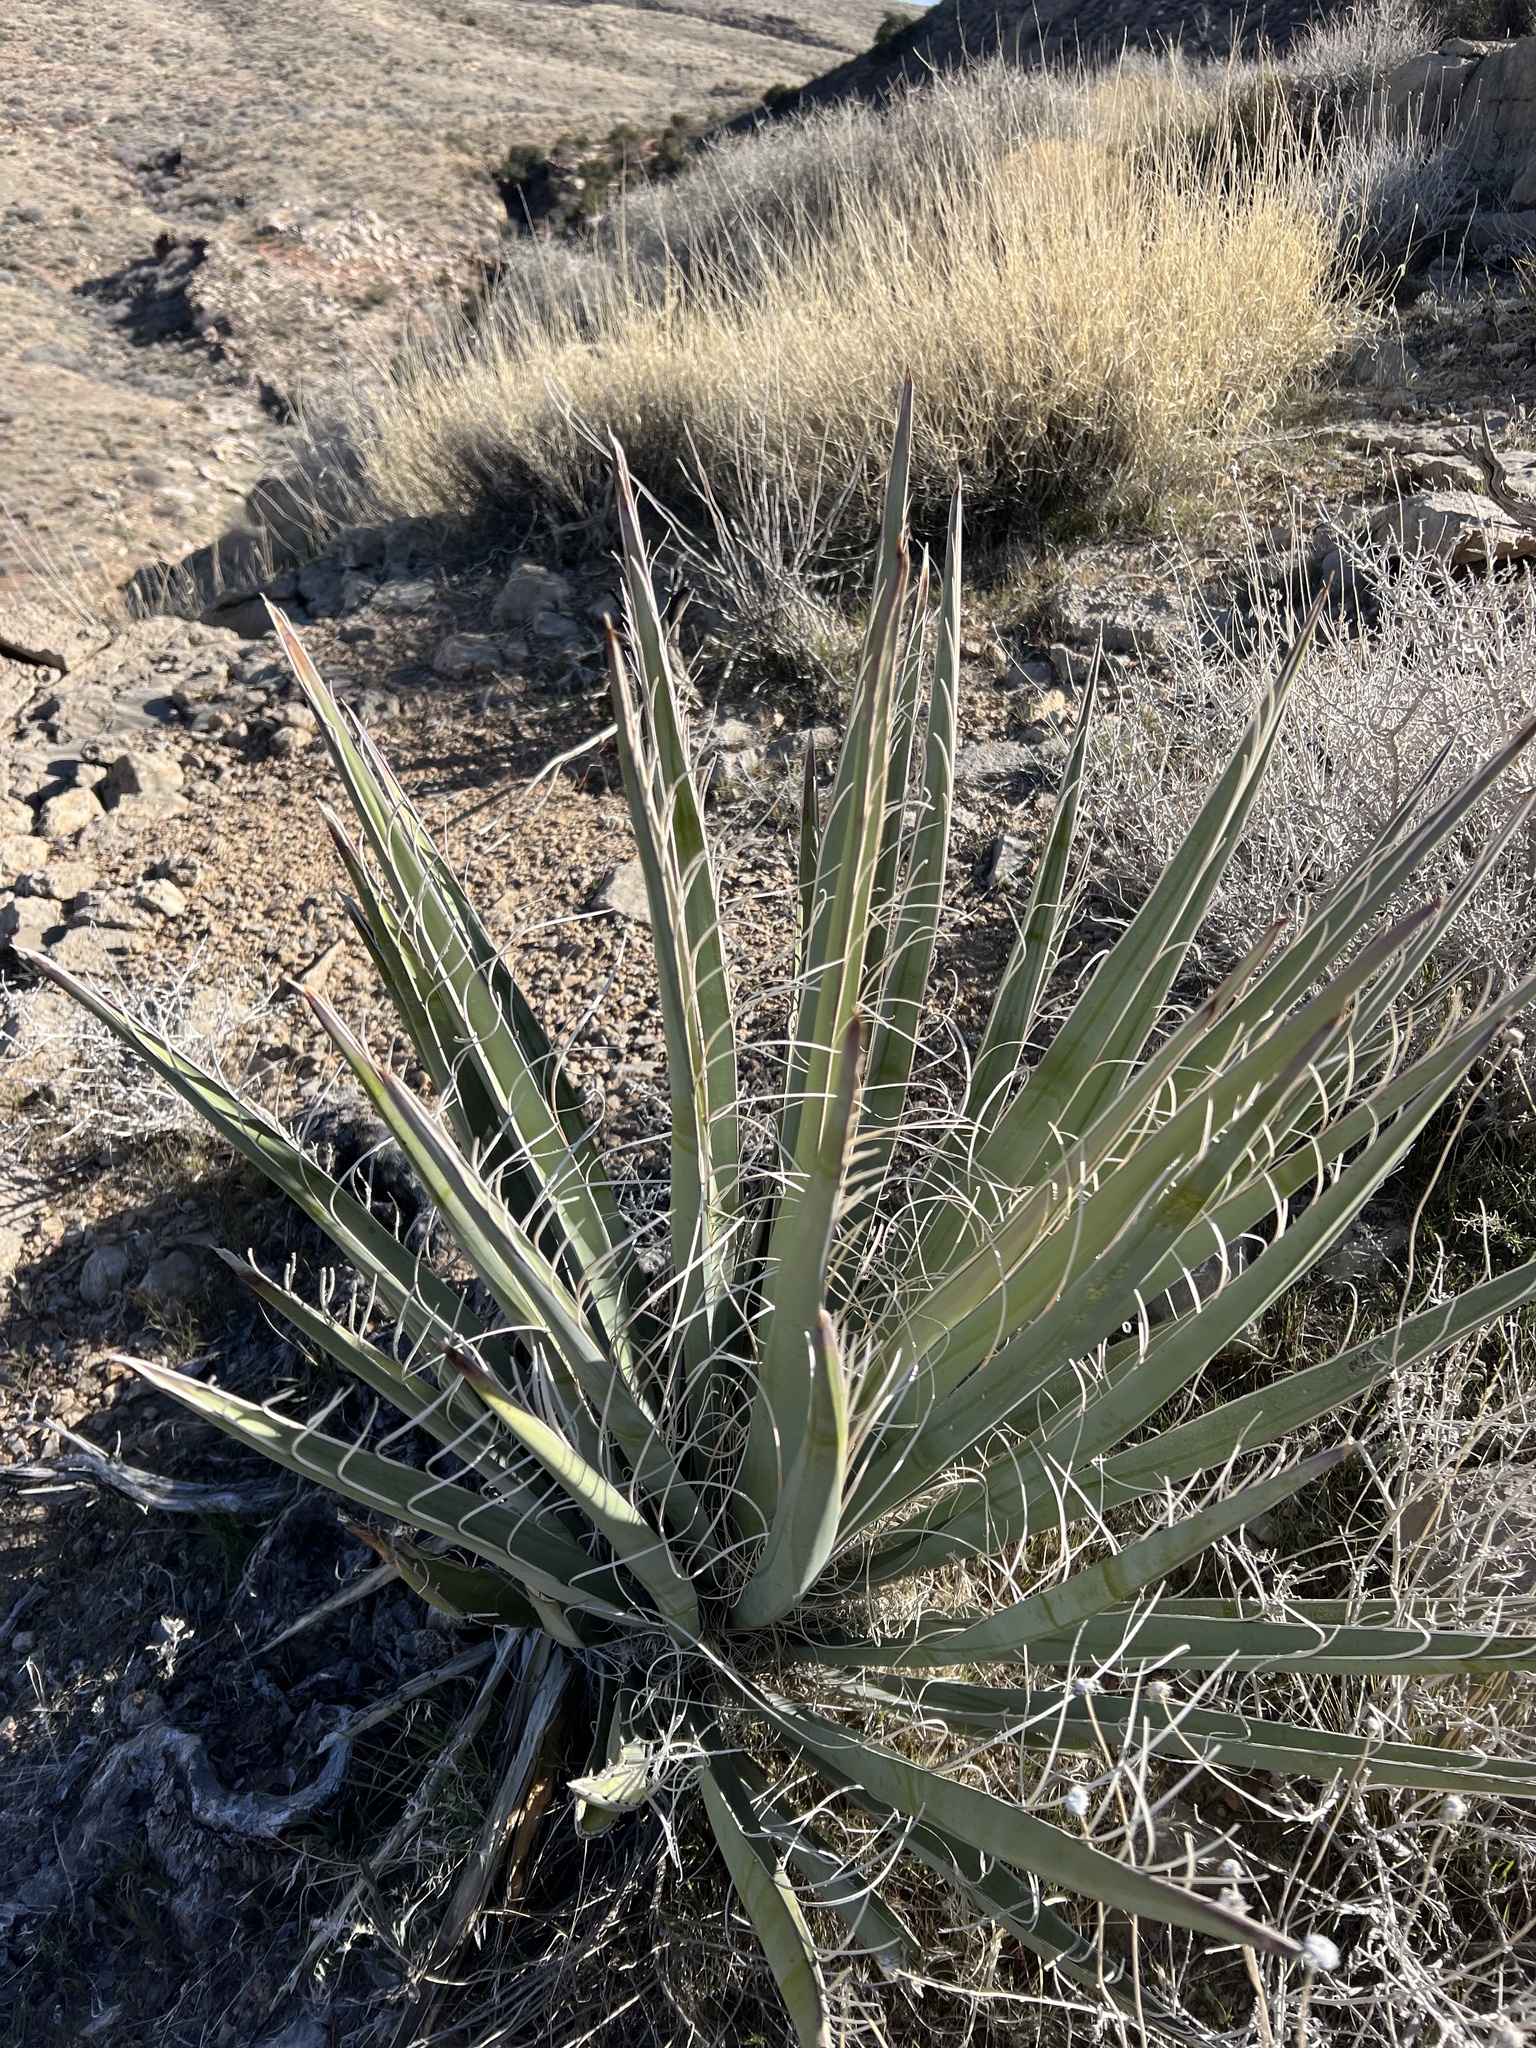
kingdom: Plantae
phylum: Tracheophyta
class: Liliopsida
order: Asparagales
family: Asparagaceae
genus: Yucca
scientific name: Yucca baccata
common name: Banana yucca
